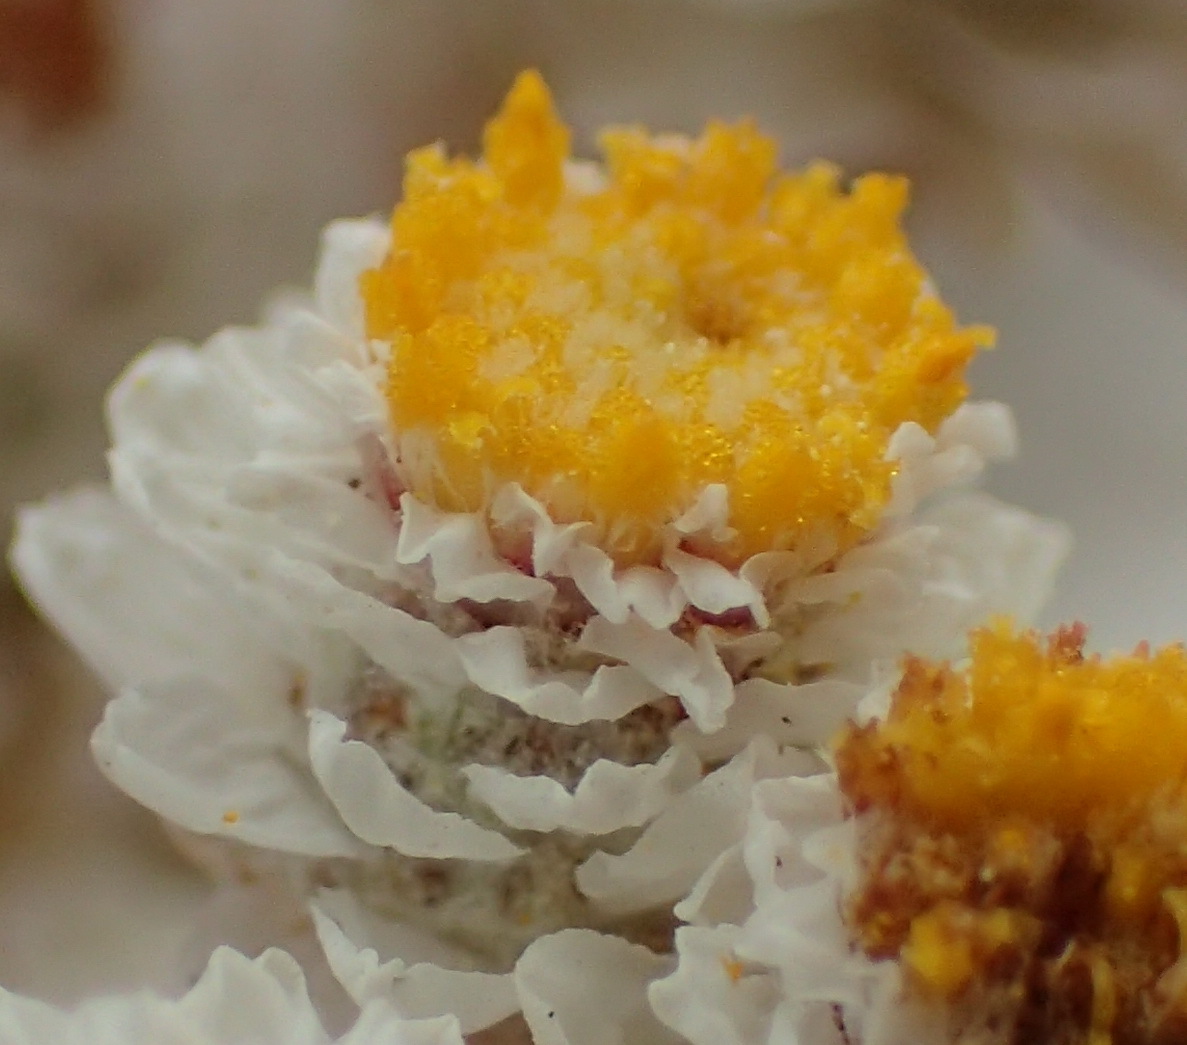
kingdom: Plantae
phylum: Tracheophyta
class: Magnoliopsida
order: Asterales
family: Asteraceae
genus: Helichrysum
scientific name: Helichrysum felinum
